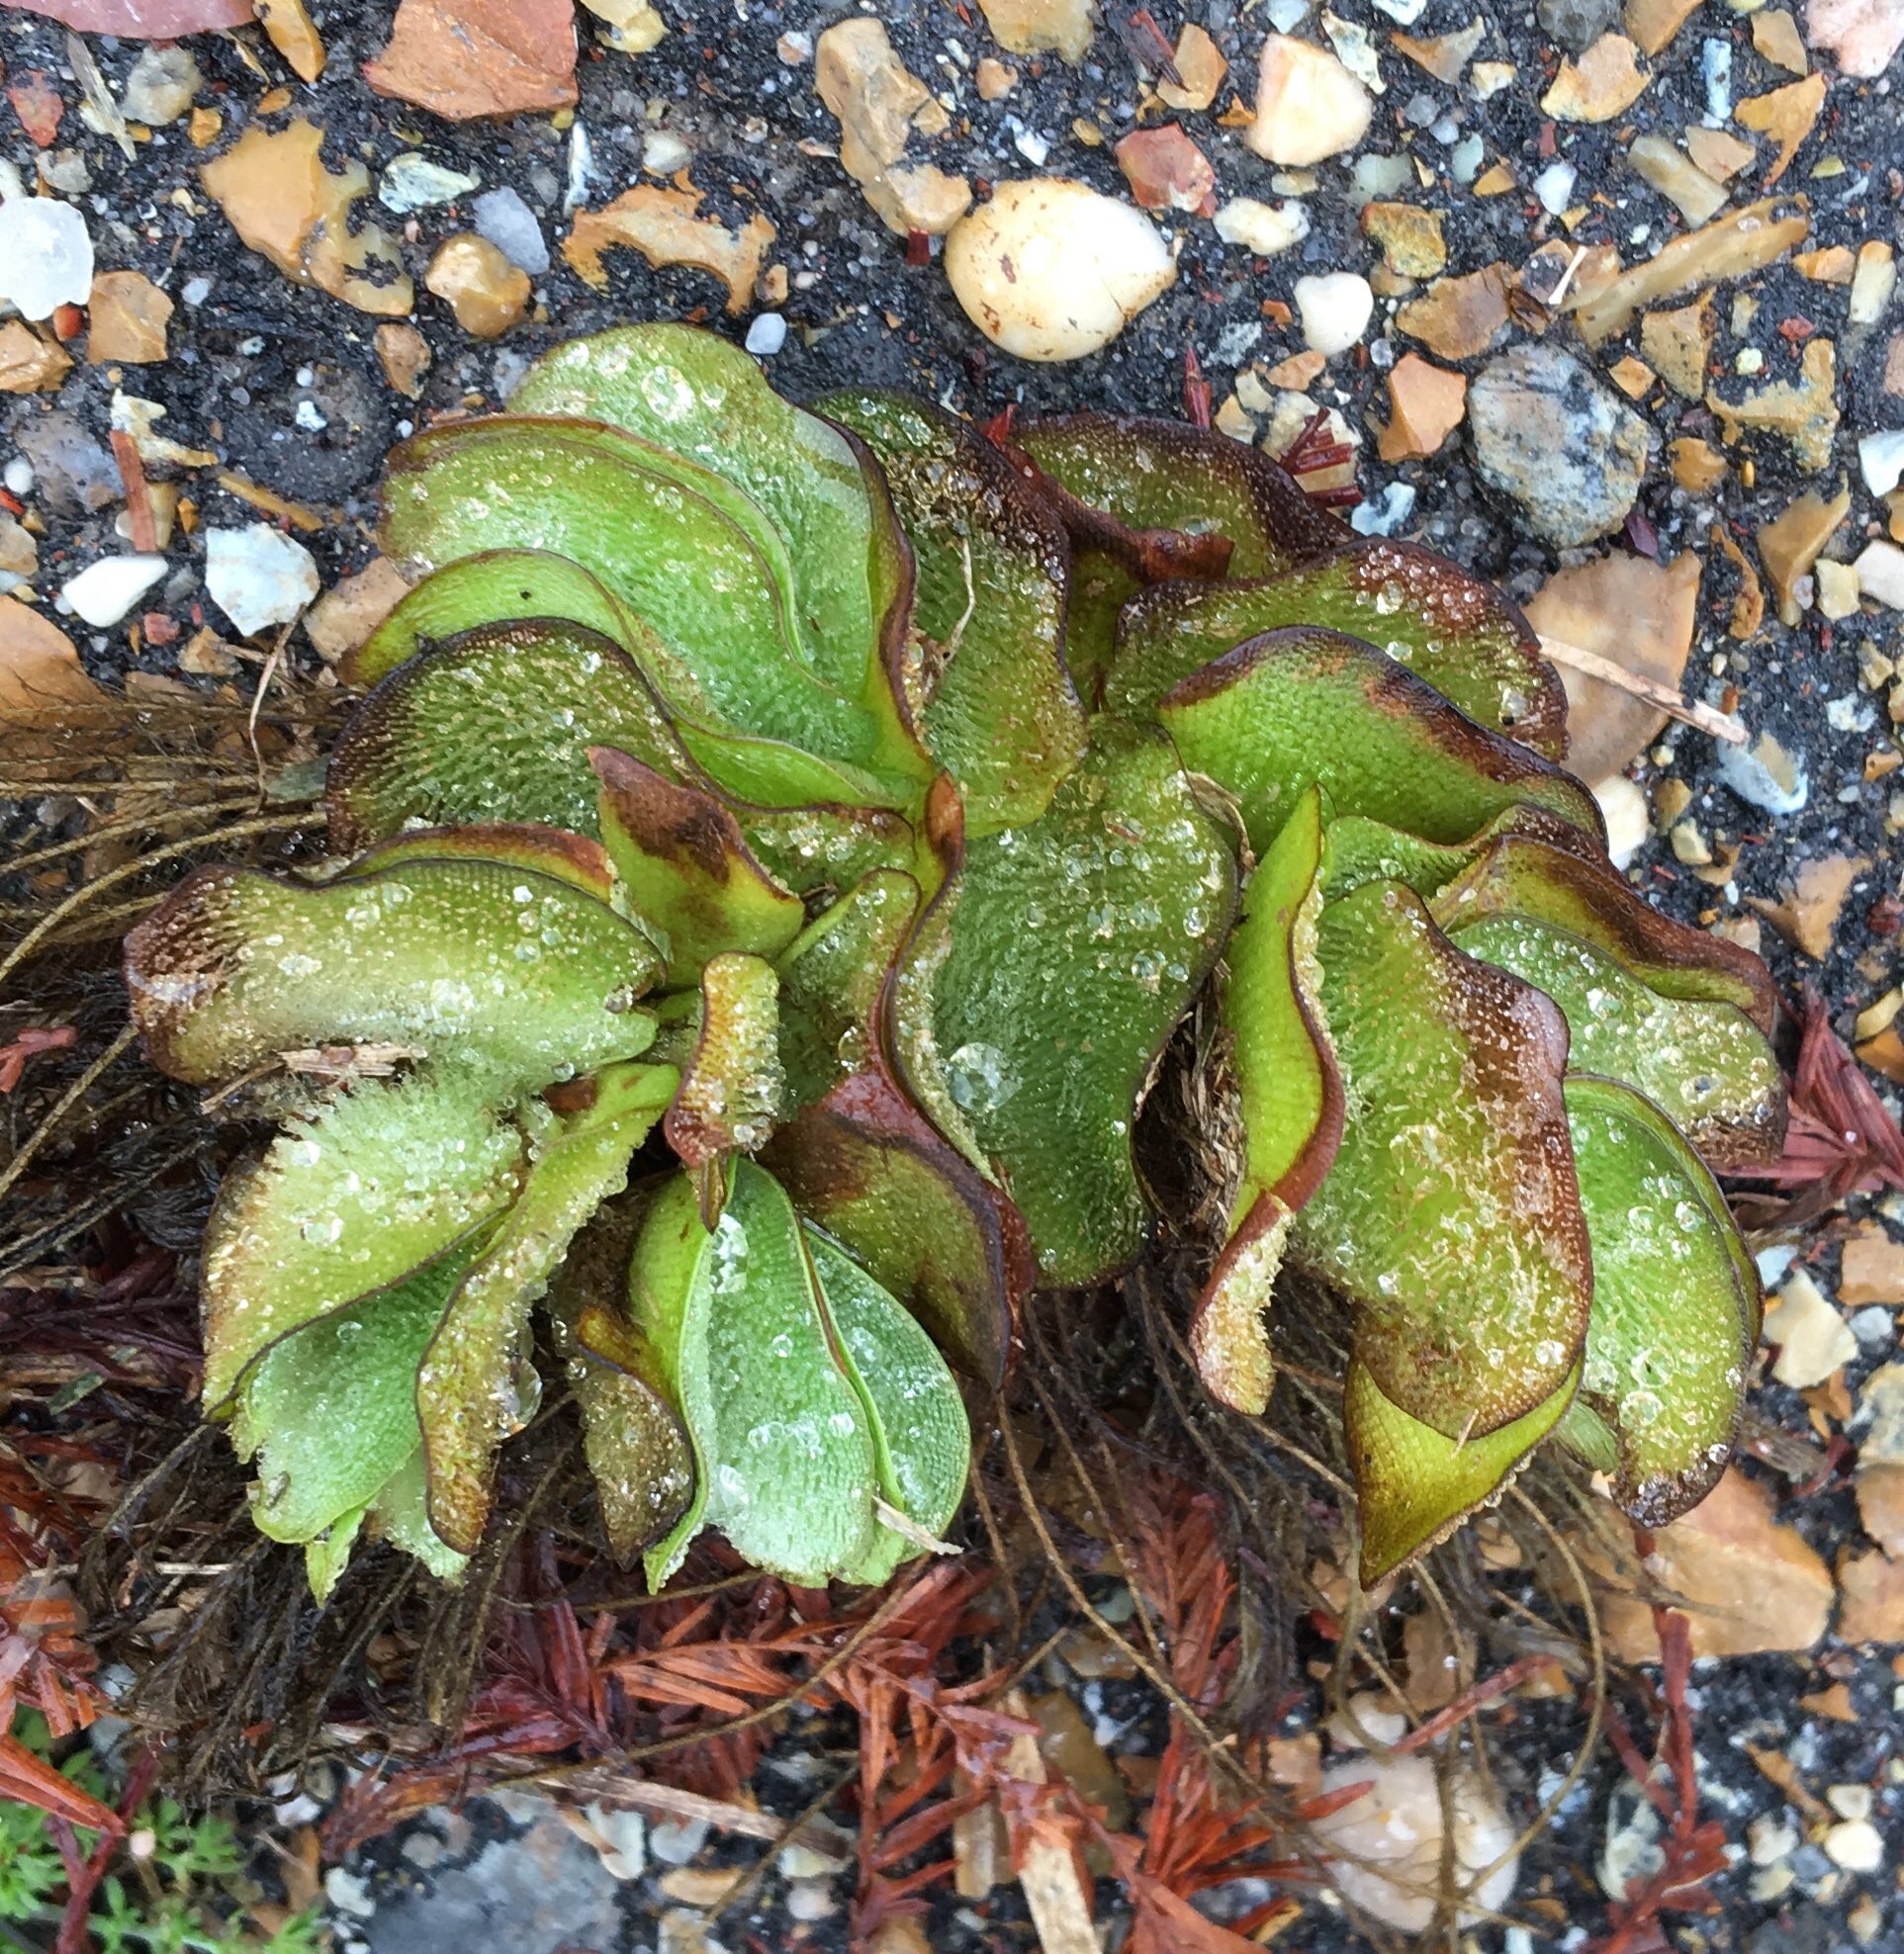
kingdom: Plantae
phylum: Tracheophyta
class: Polypodiopsida
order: Salviniales
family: Salviniaceae
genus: Salvinia
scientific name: Salvinia molesta
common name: Kariba weed
